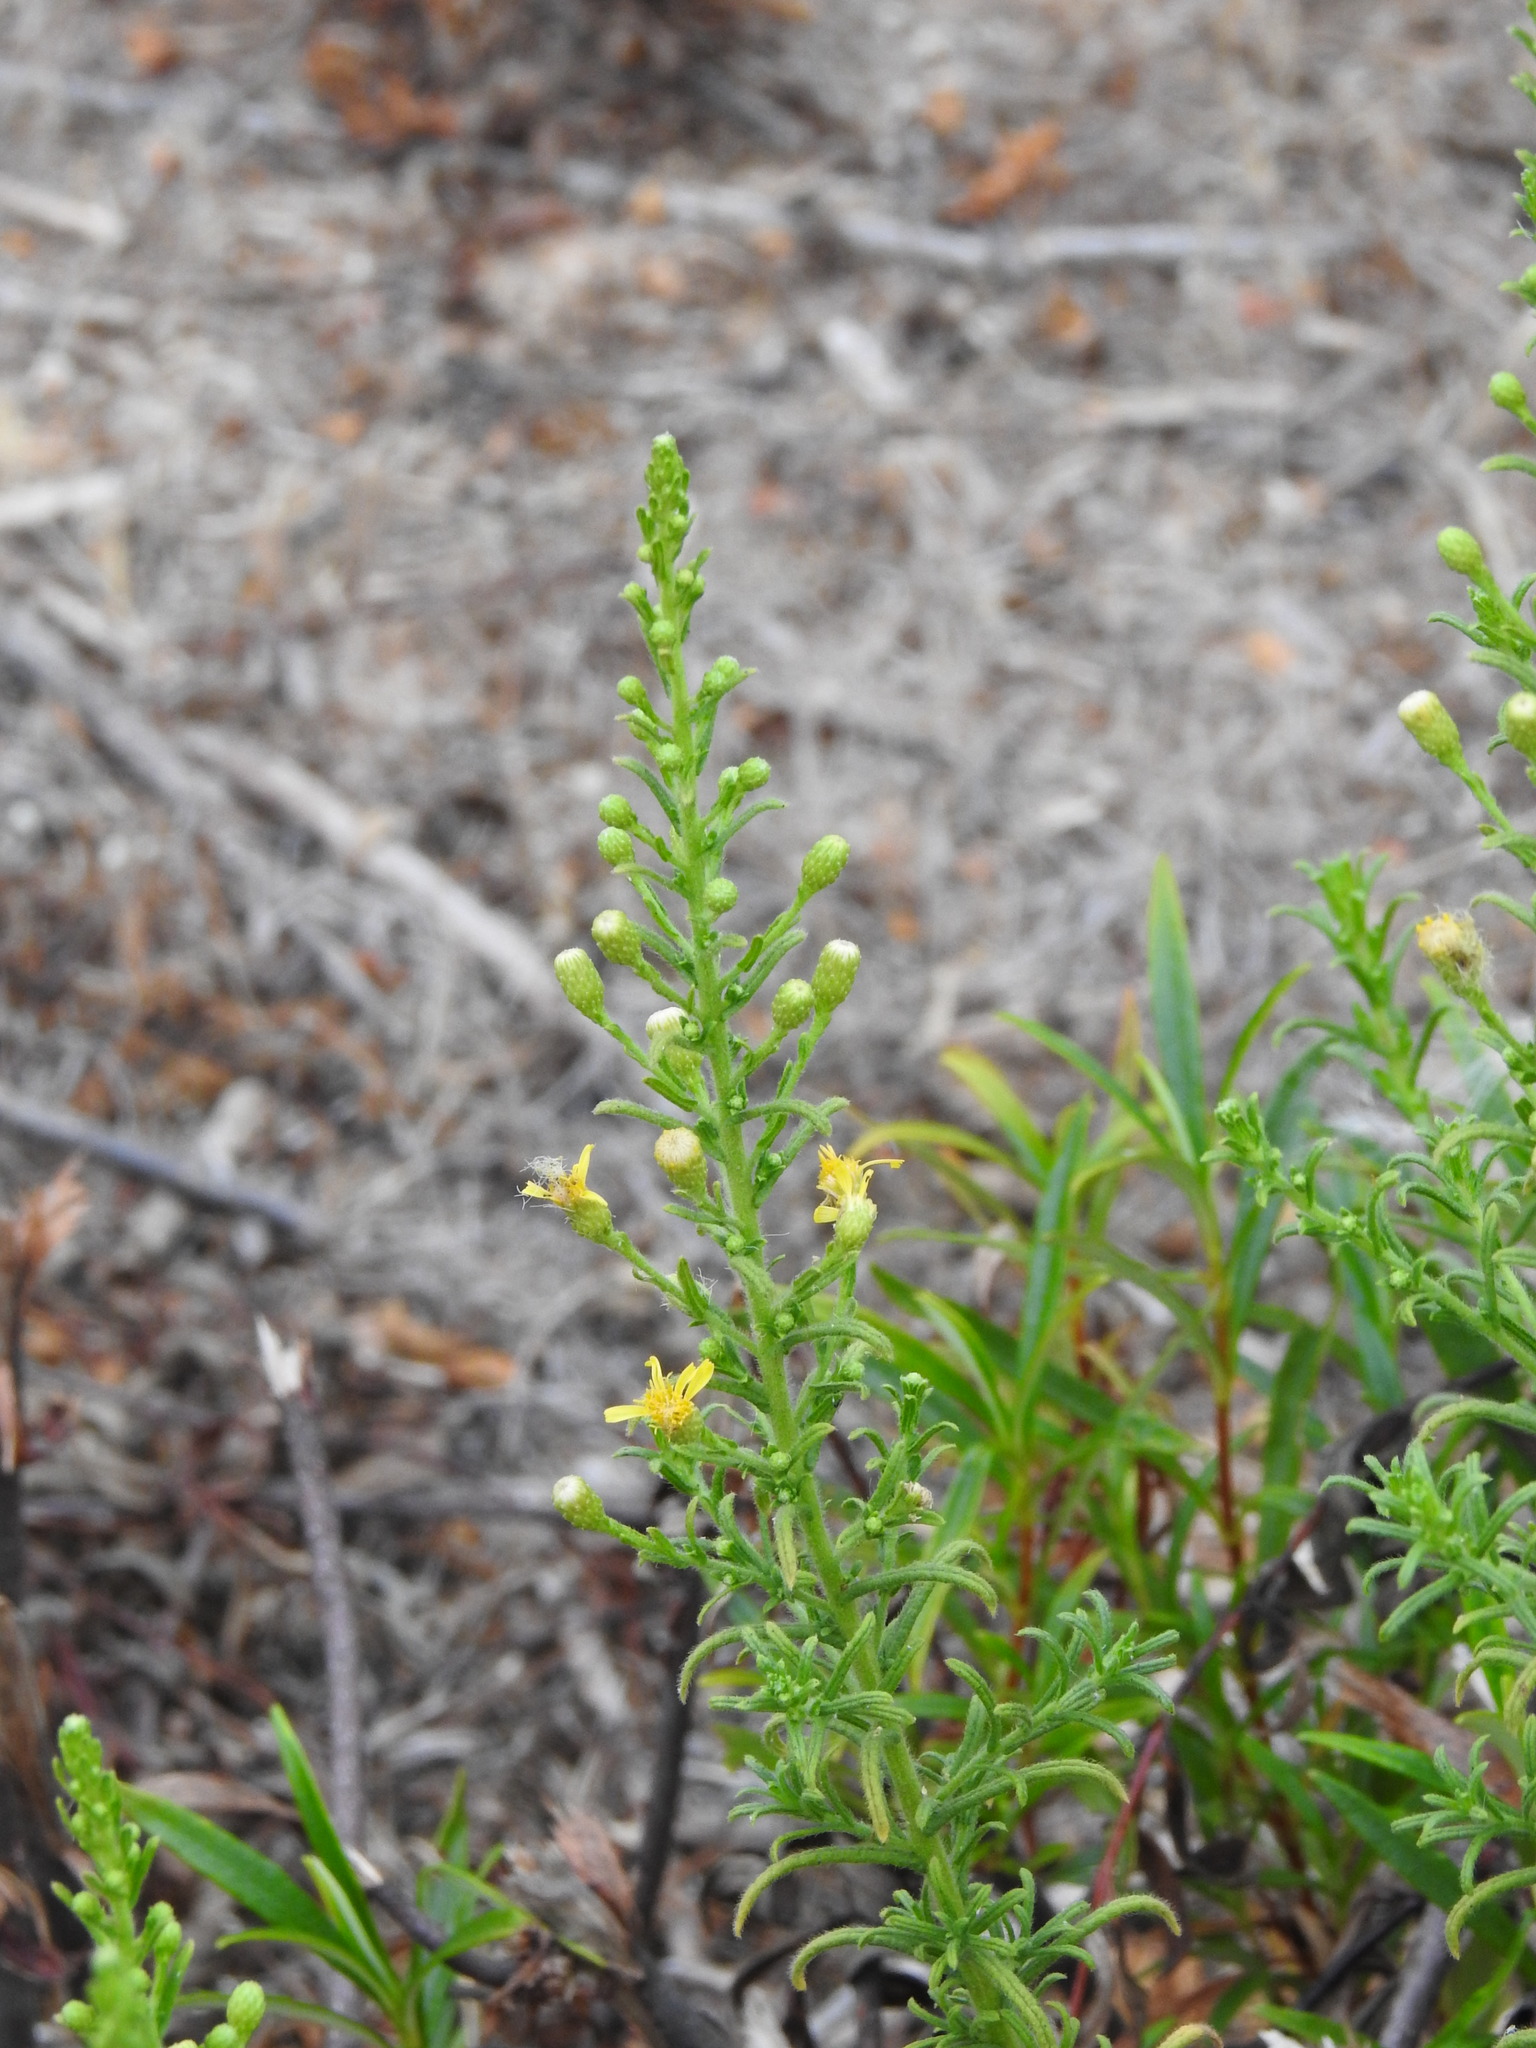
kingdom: Plantae
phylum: Tracheophyta
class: Magnoliopsida
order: Asterales
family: Asteraceae
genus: Dittrichia
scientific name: Dittrichia viscosa
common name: Woody fleabane
